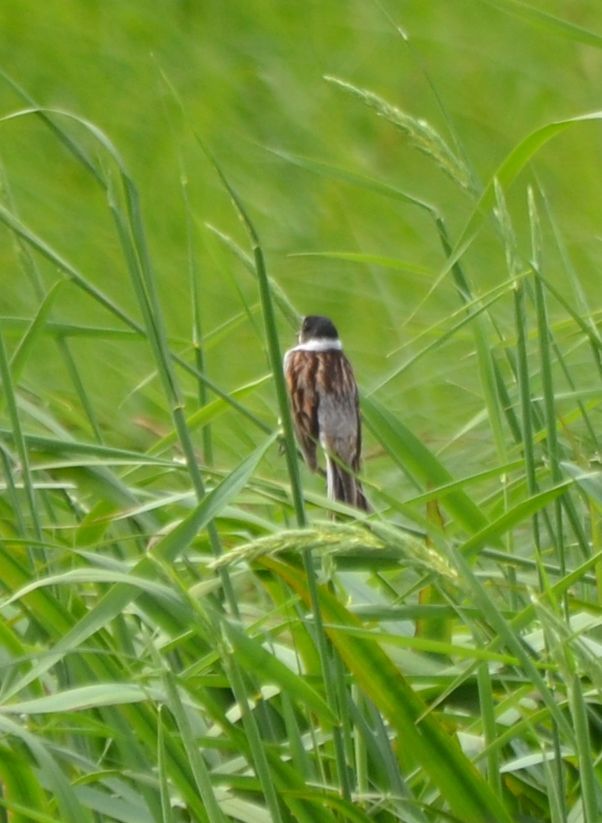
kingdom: Animalia
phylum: Chordata
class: Aves
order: Passeriformes
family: Emberizidae
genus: Emberiza
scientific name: Emberiza schoeniclus
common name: Reed bunting
